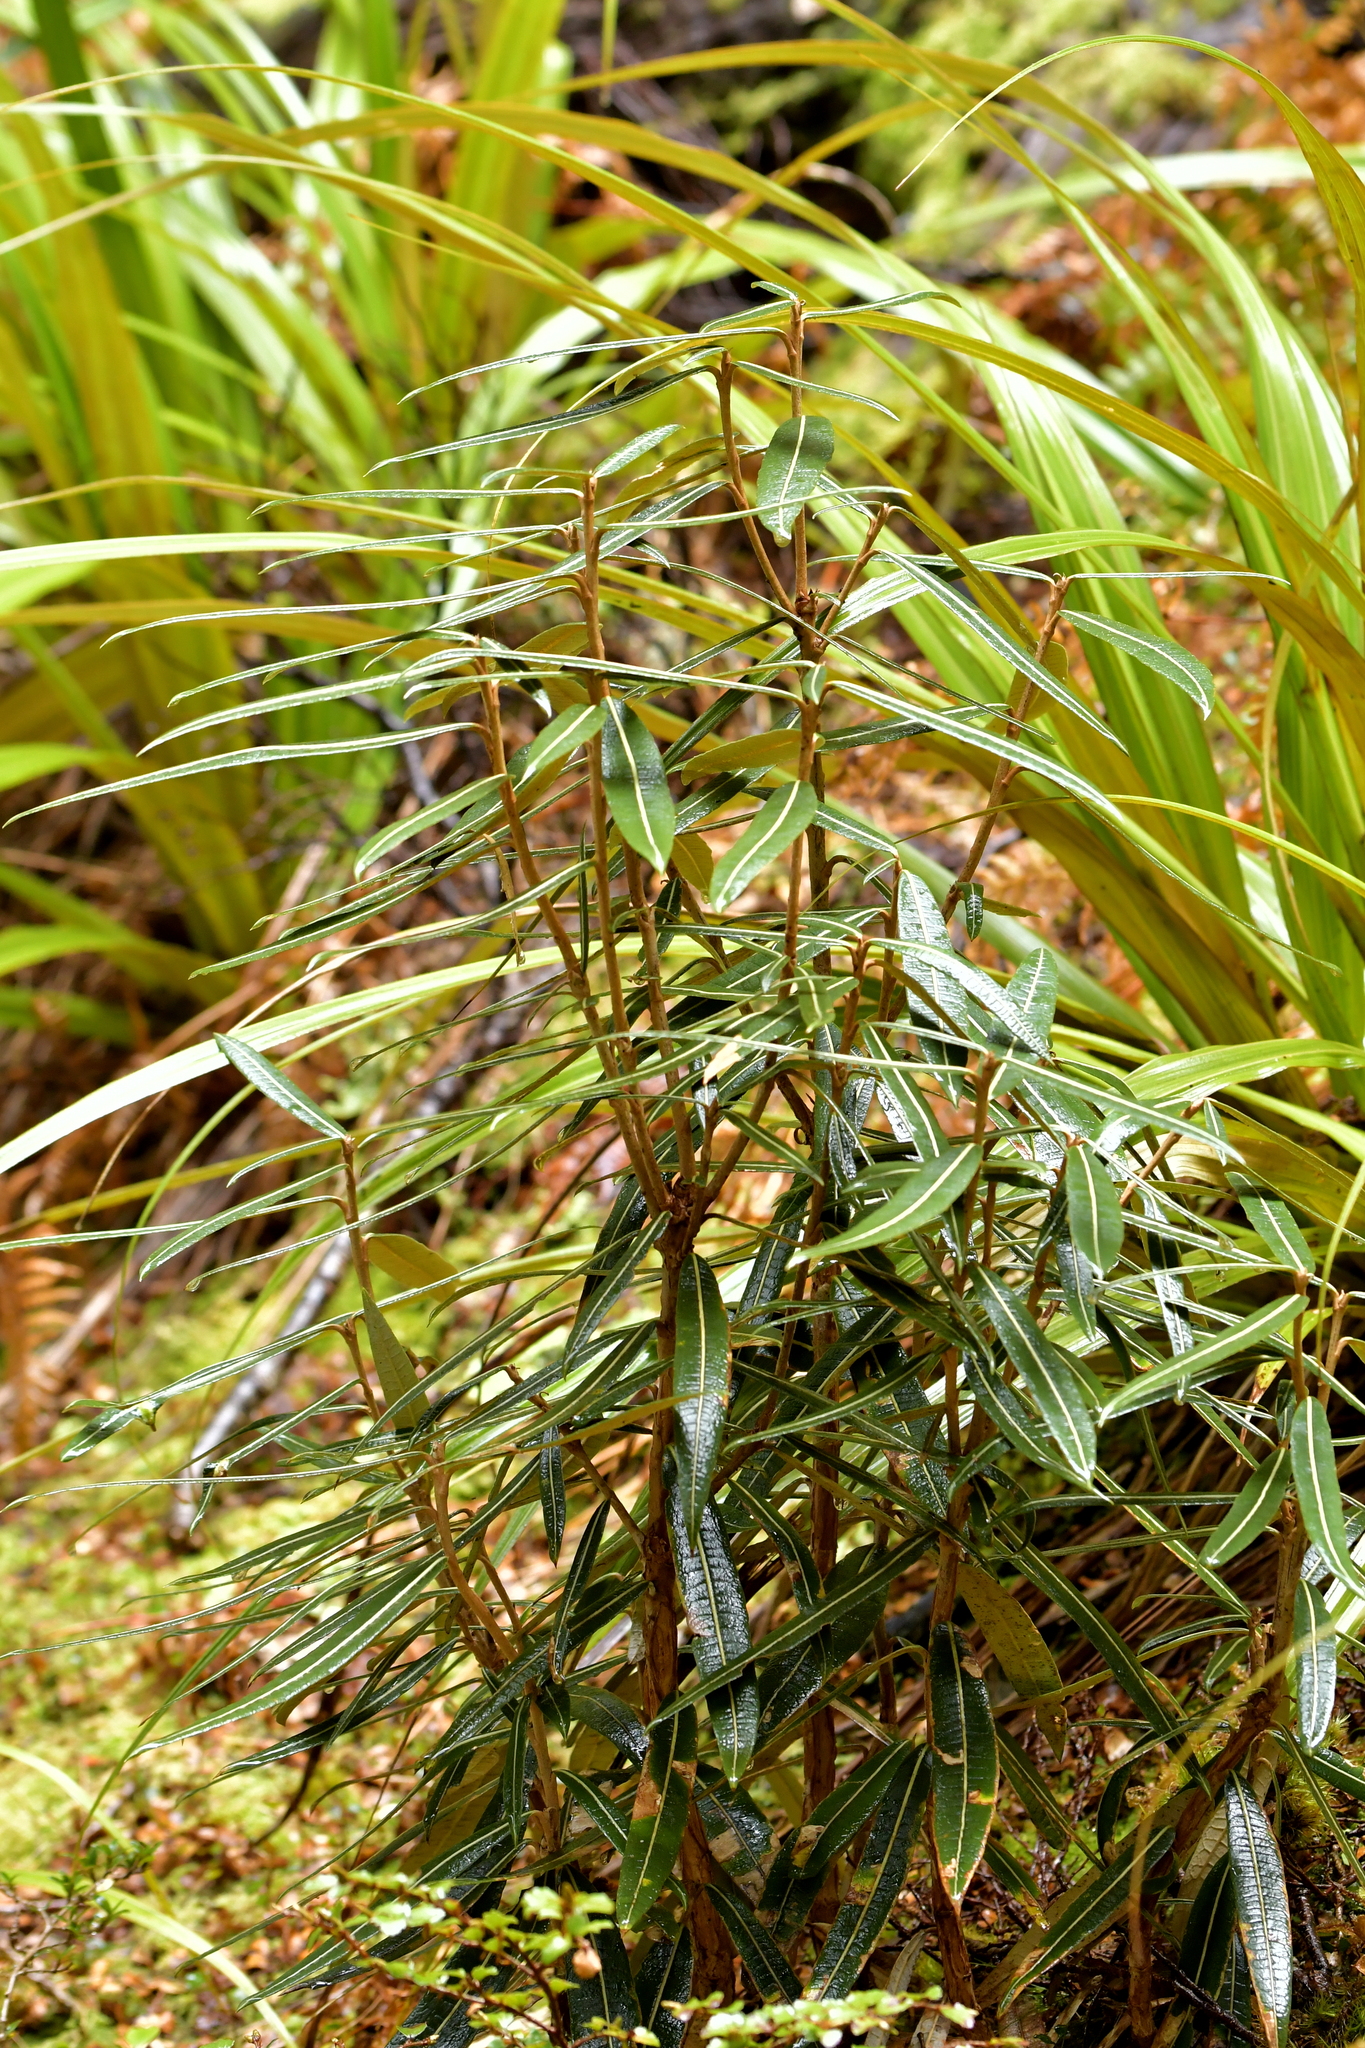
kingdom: Plantae
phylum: Tracheophyta
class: Magnoliopsida
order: Asterales
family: Asteraceae
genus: Olearia
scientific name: Olearia lacunosa
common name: Lancewood tree daisy
